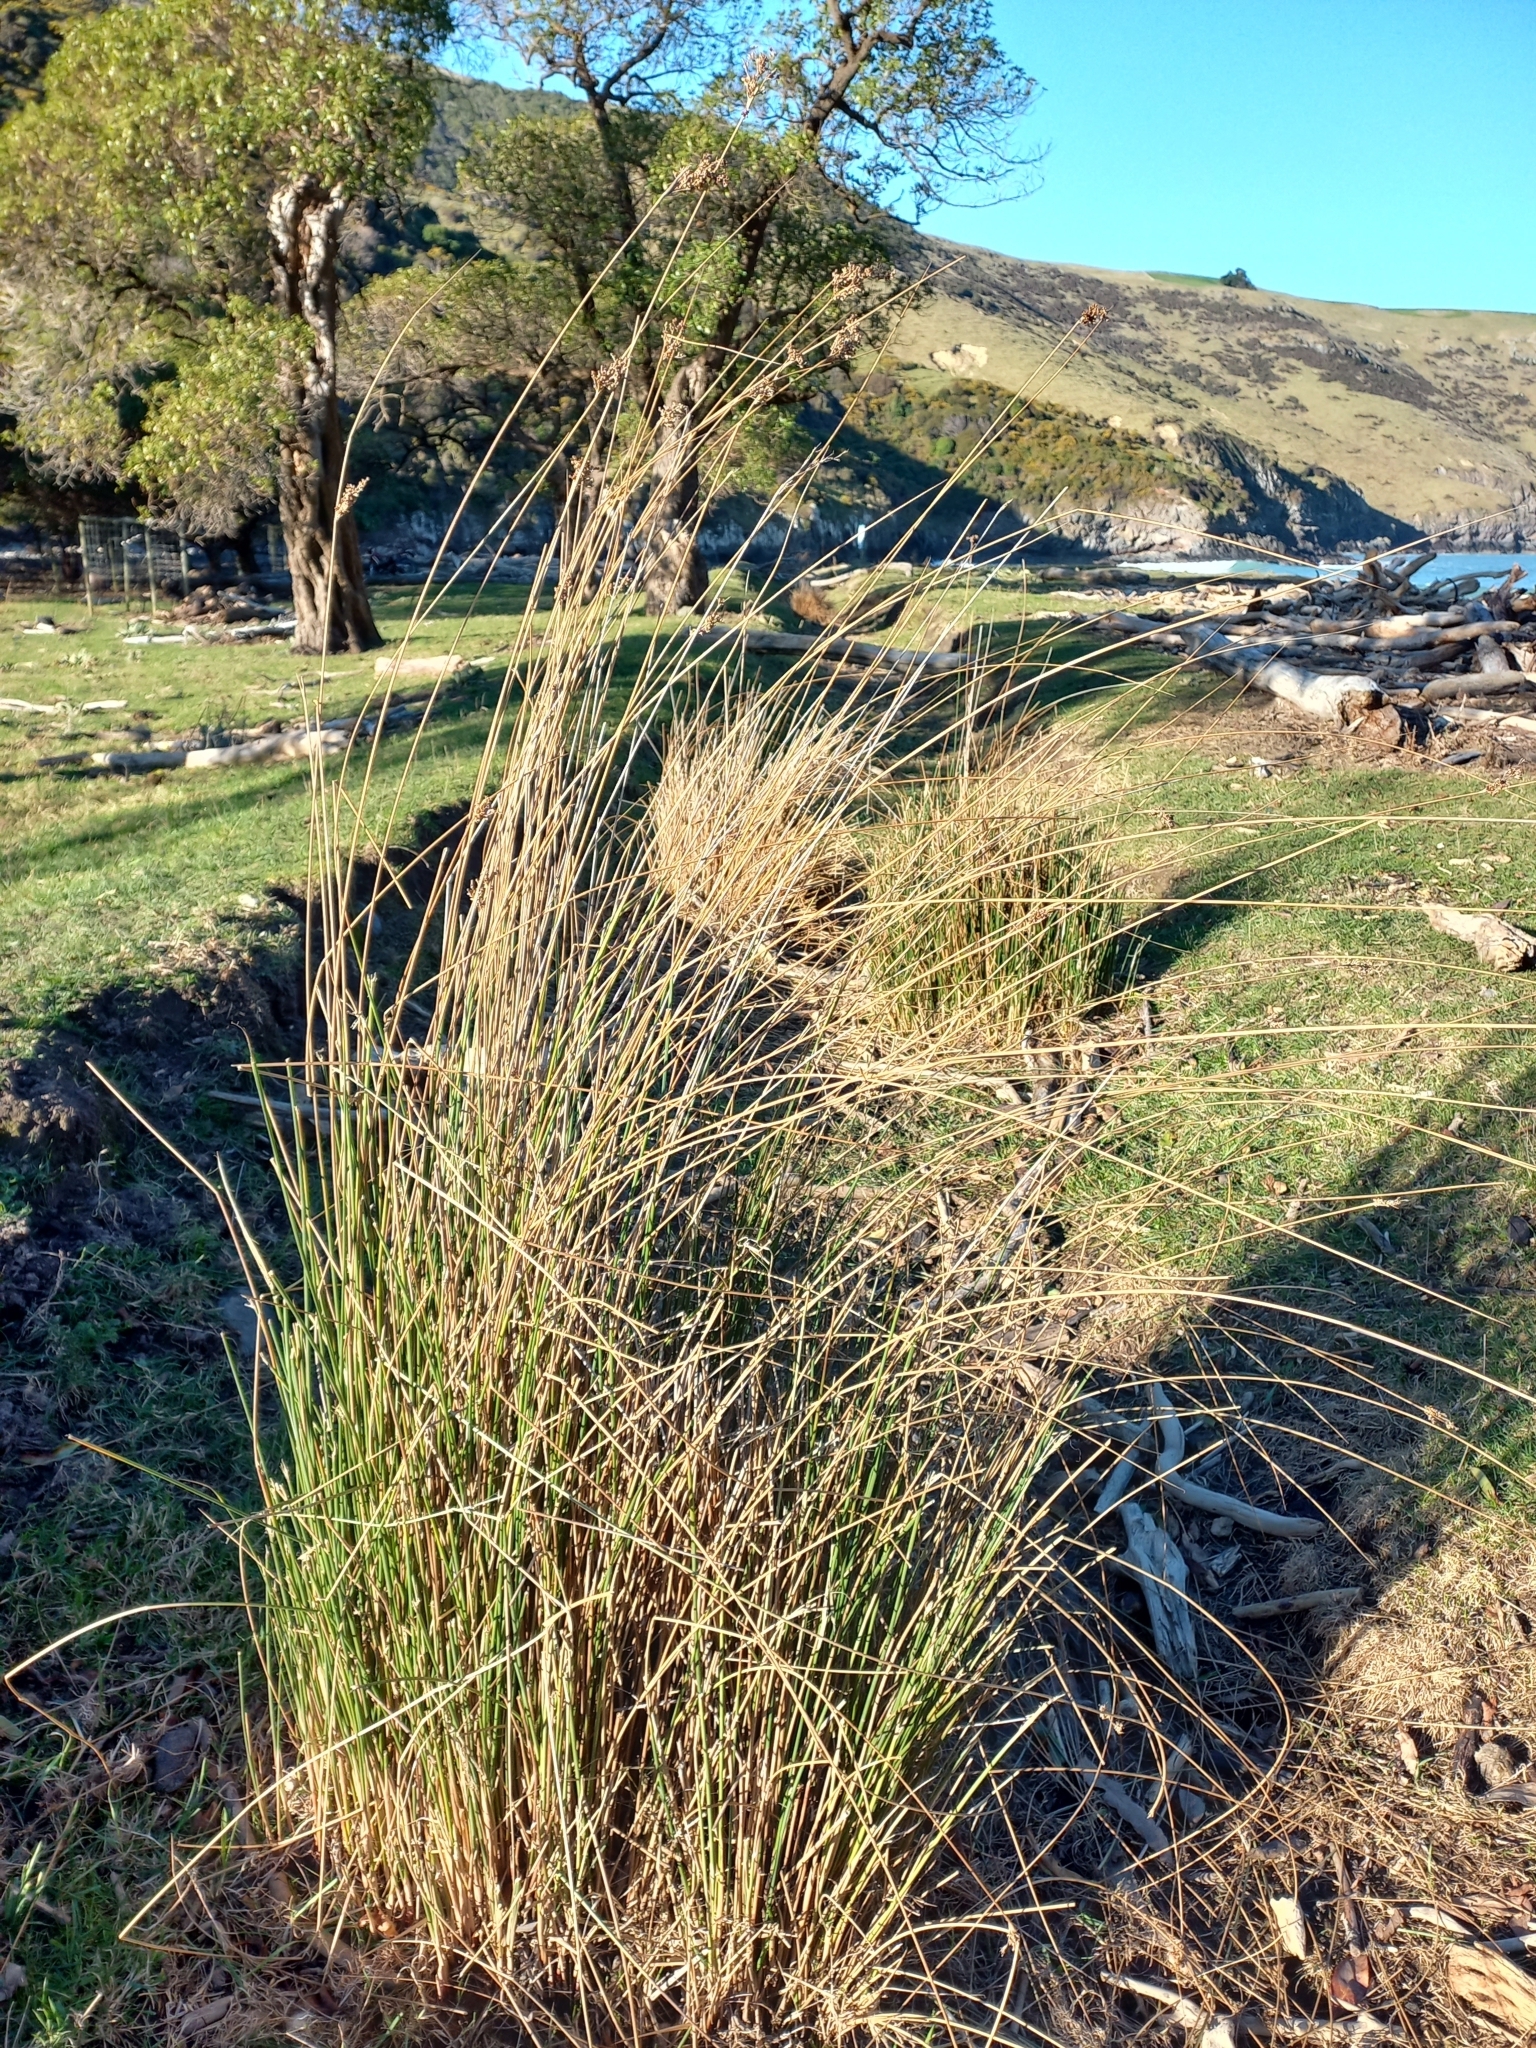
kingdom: Plantae
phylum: Tracheophyta
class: Liliopsida
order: Poales
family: Juncaceae
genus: Juncus
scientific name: Juncus sarophorus
